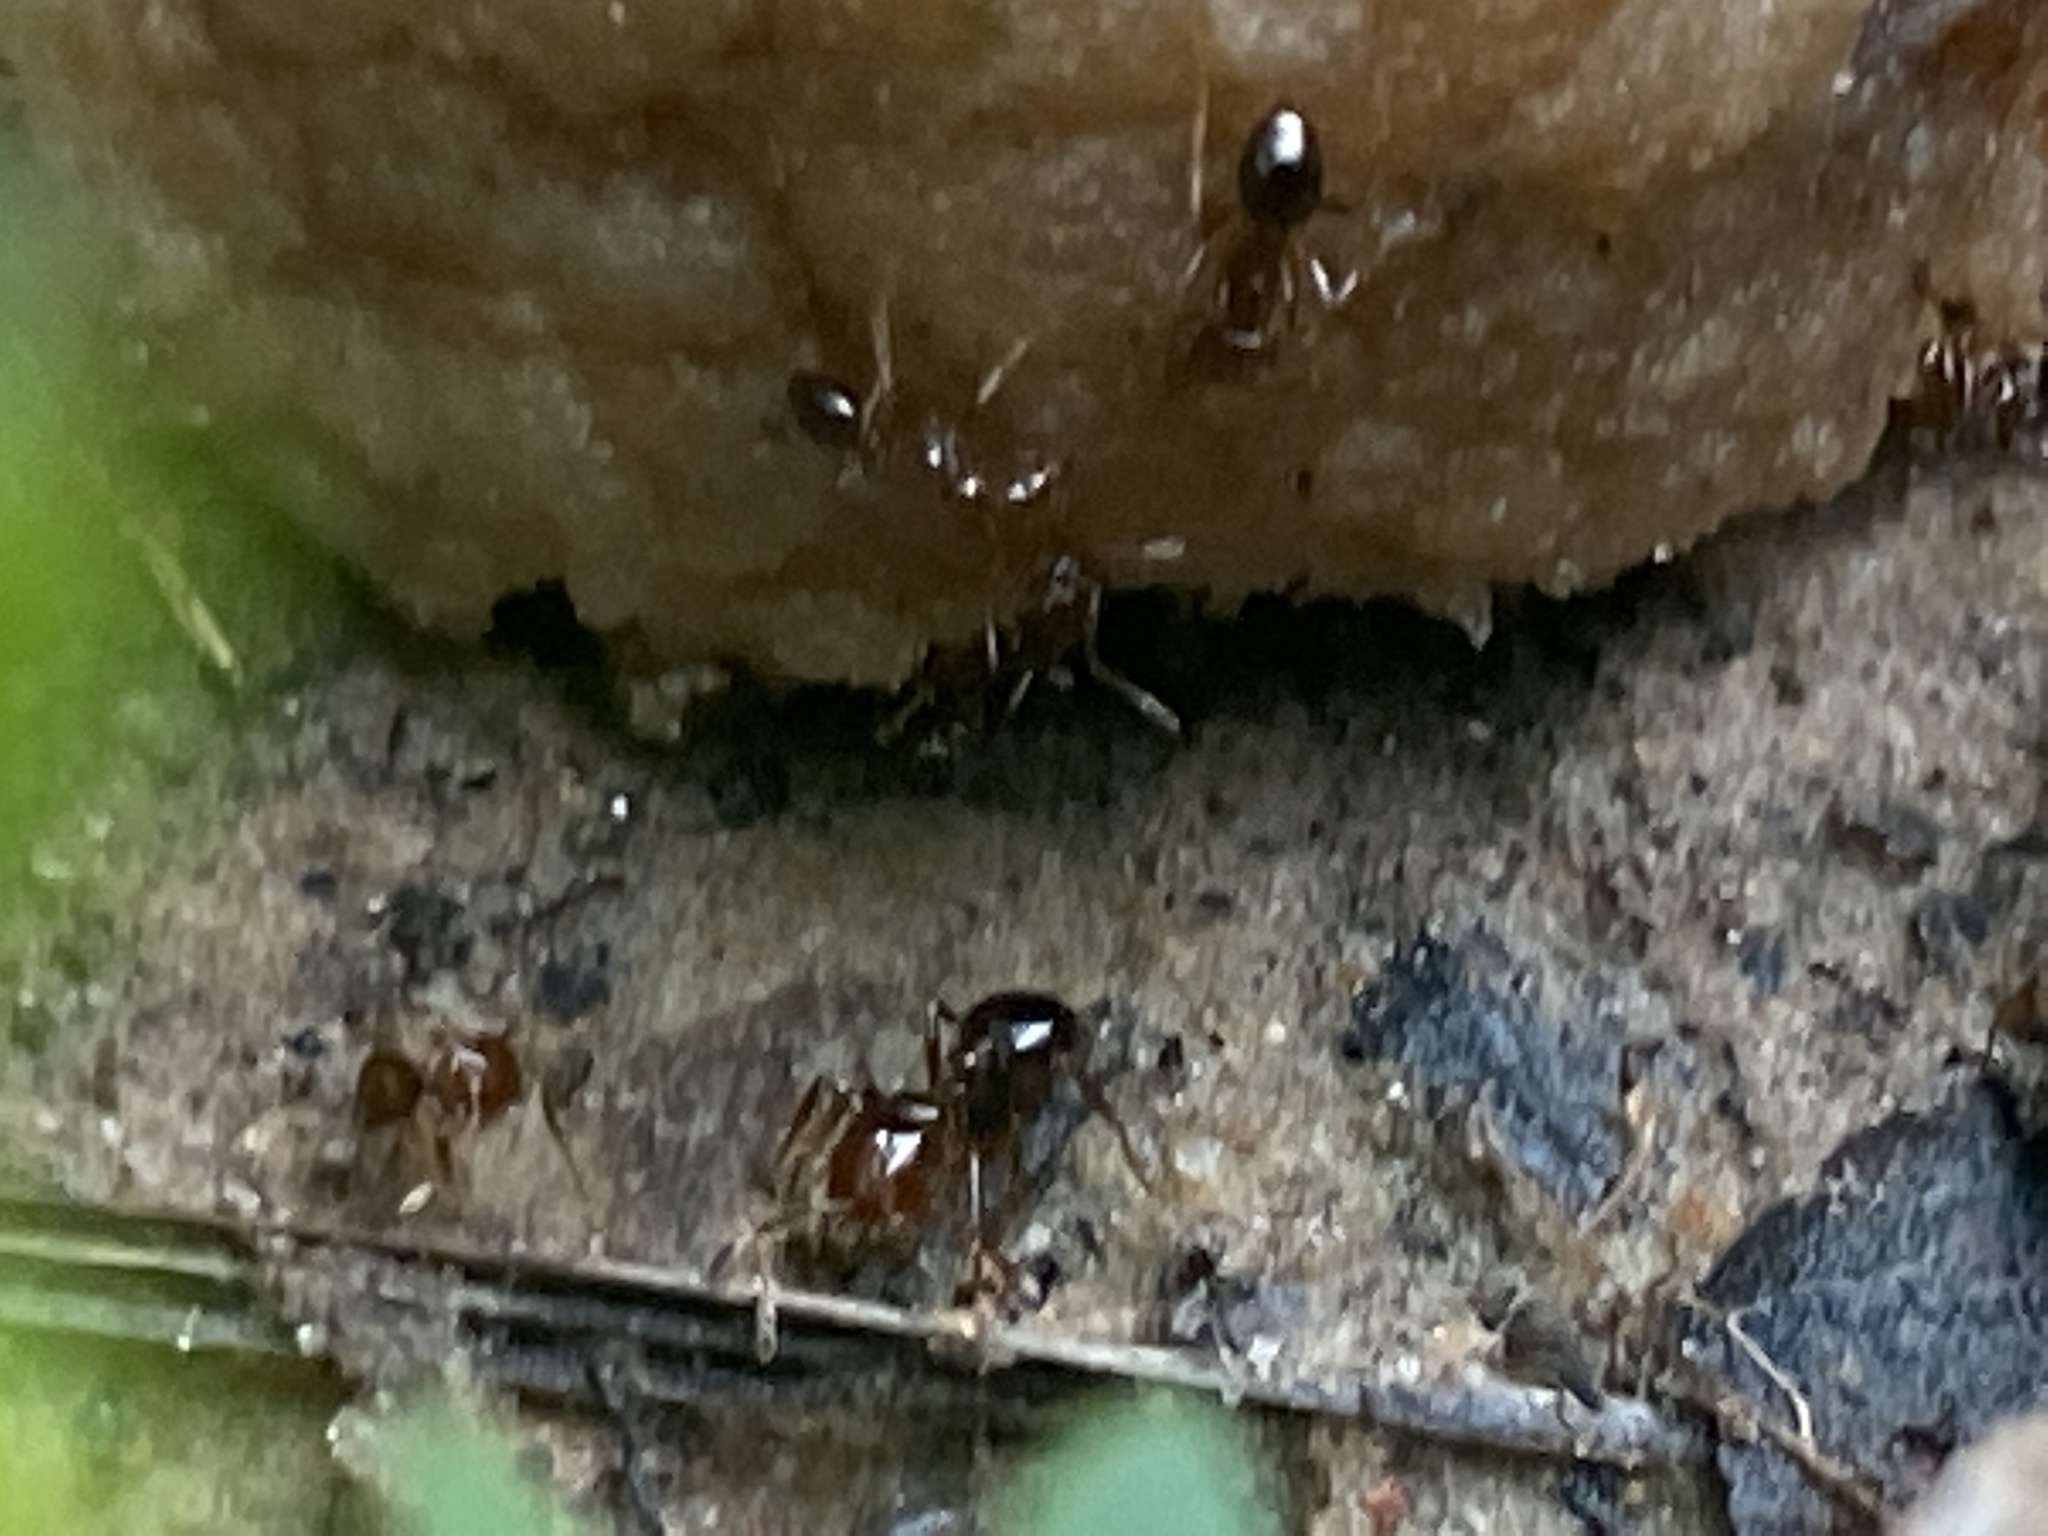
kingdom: Animalia
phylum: Arthropoda
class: Insecta
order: Hymenoptera
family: Formicidae
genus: Solenopsis
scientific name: Solenopsis invicta
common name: Red imported fire ant
